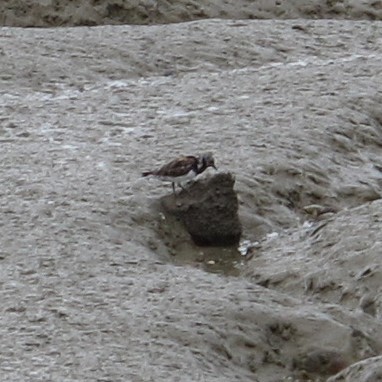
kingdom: Animalia
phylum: Chordata
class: Aves
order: Charadriiformes
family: Scolopacidae
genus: Arenaria
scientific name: Arenaria interpres
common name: Ruddy turnstone
